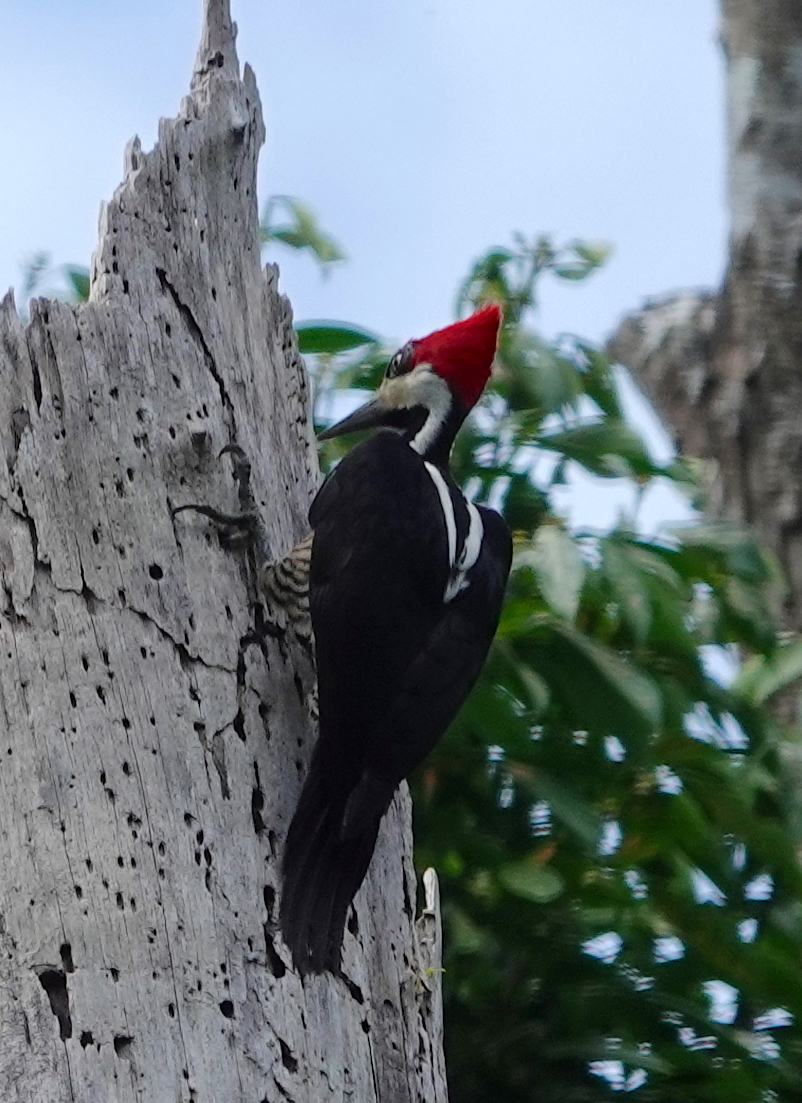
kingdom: Animalia
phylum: Chordata
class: Aves
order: Piciformes
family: Picidae
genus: Campephilus
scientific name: Campephilus melanoleucos
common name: Crimson-crested woodpecker
